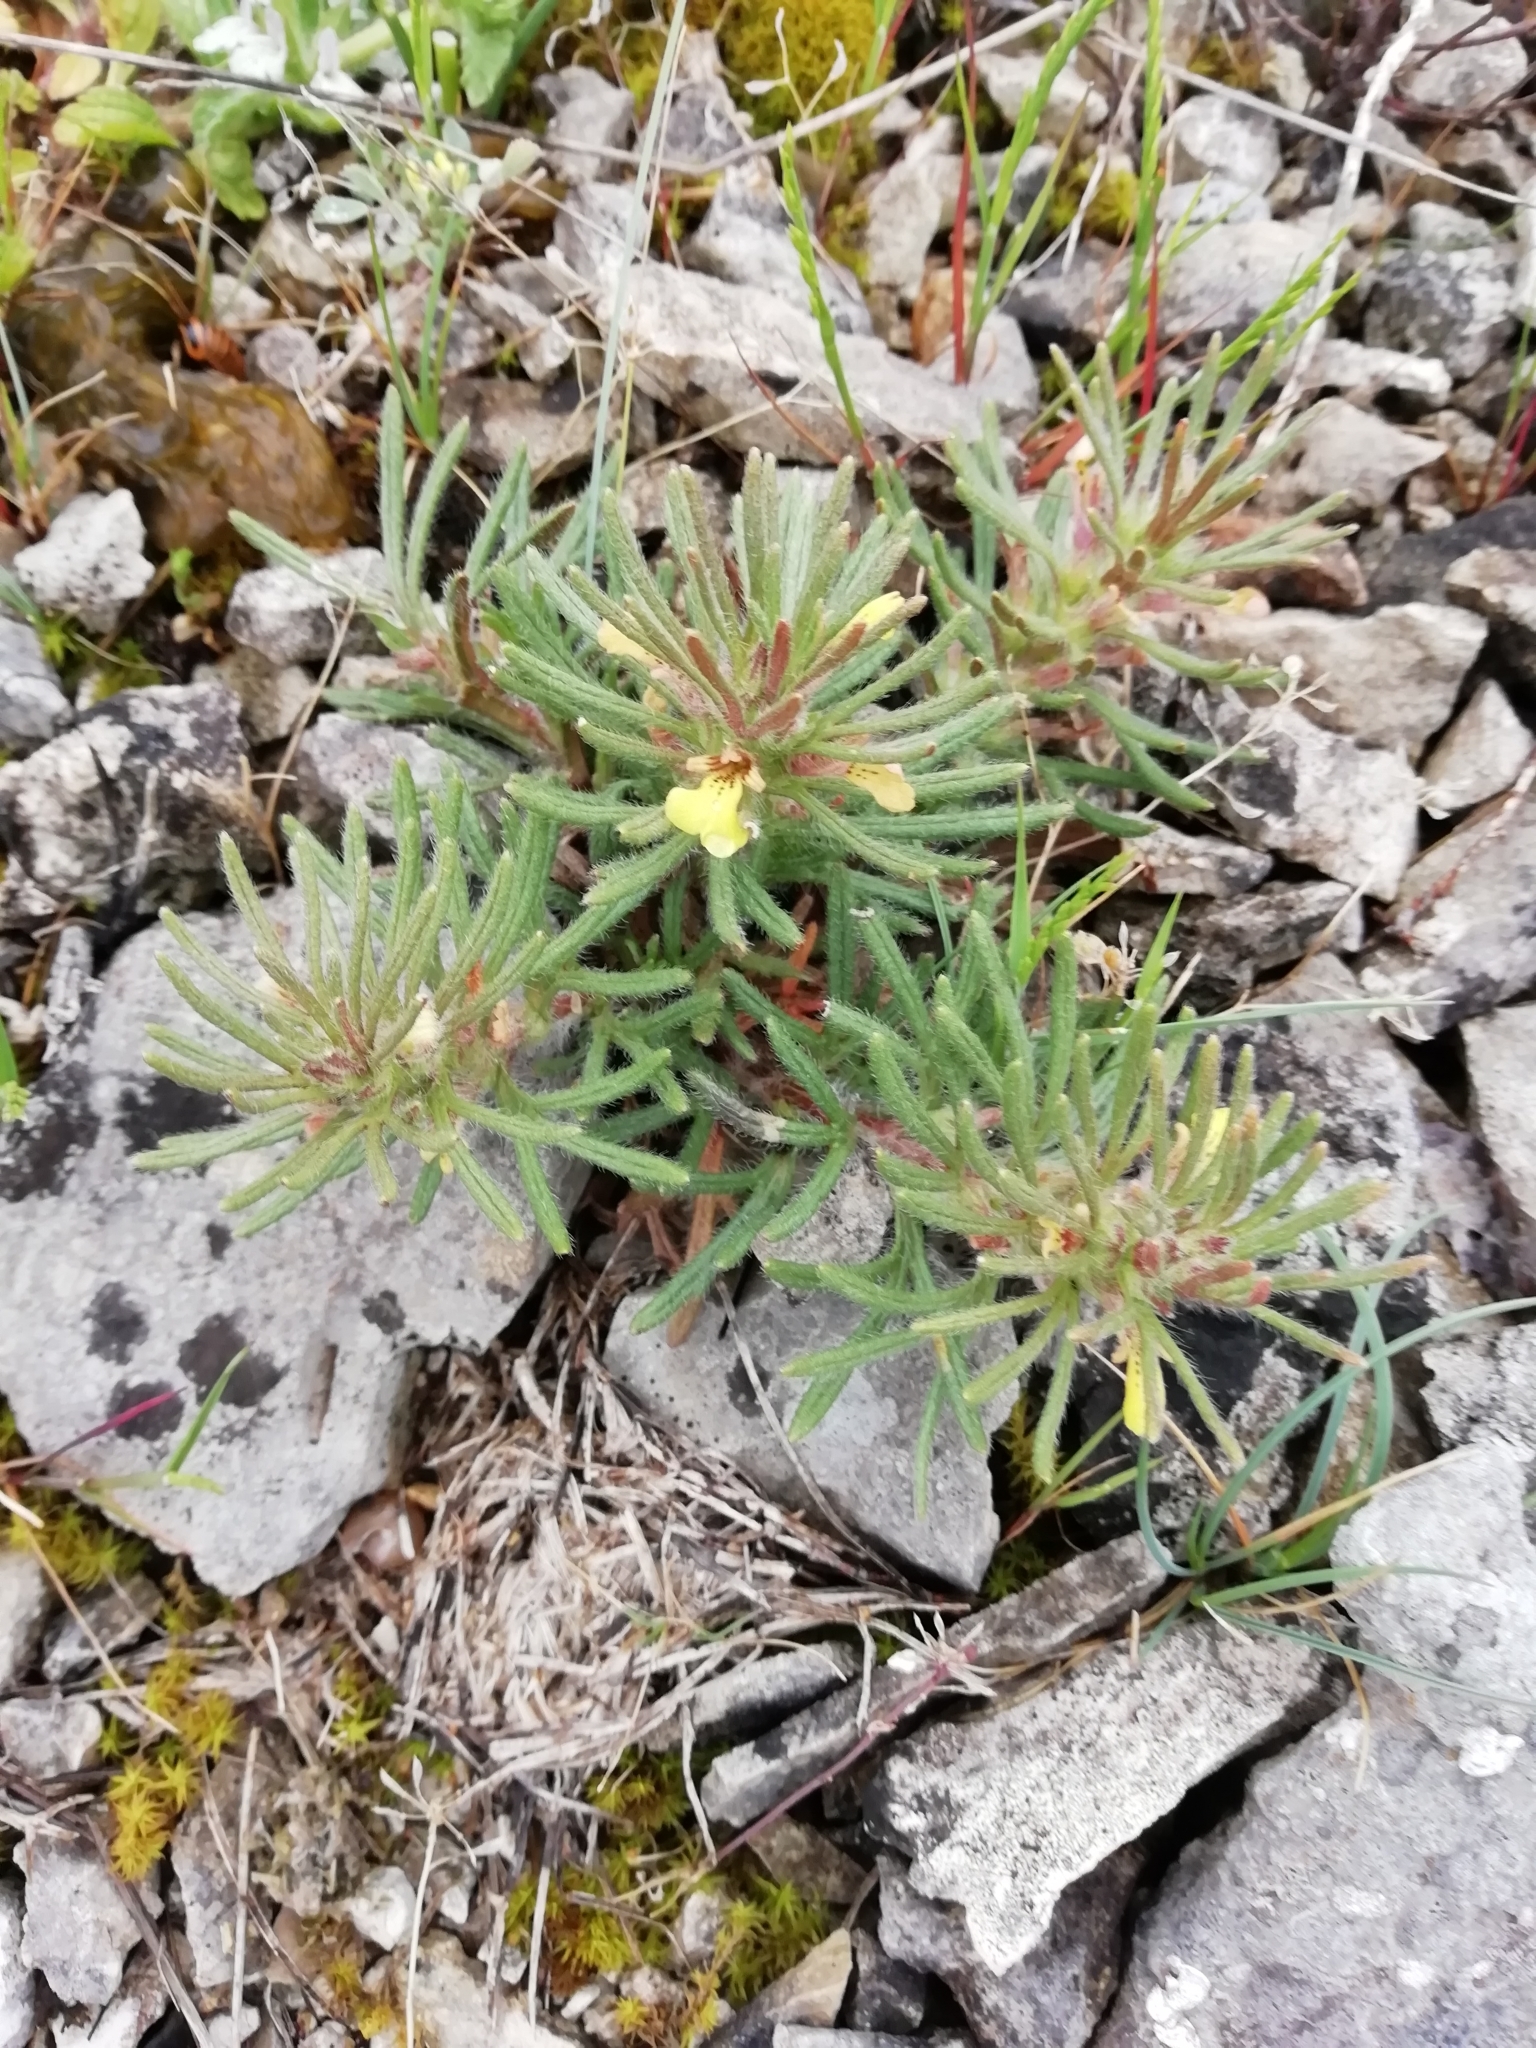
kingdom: Plantae
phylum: Tracheophyta
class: Magnoliopsida
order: Lamiales
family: Lamiaceae
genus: Ajuga
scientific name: Ajuga chamaepitys
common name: Ground-pine
